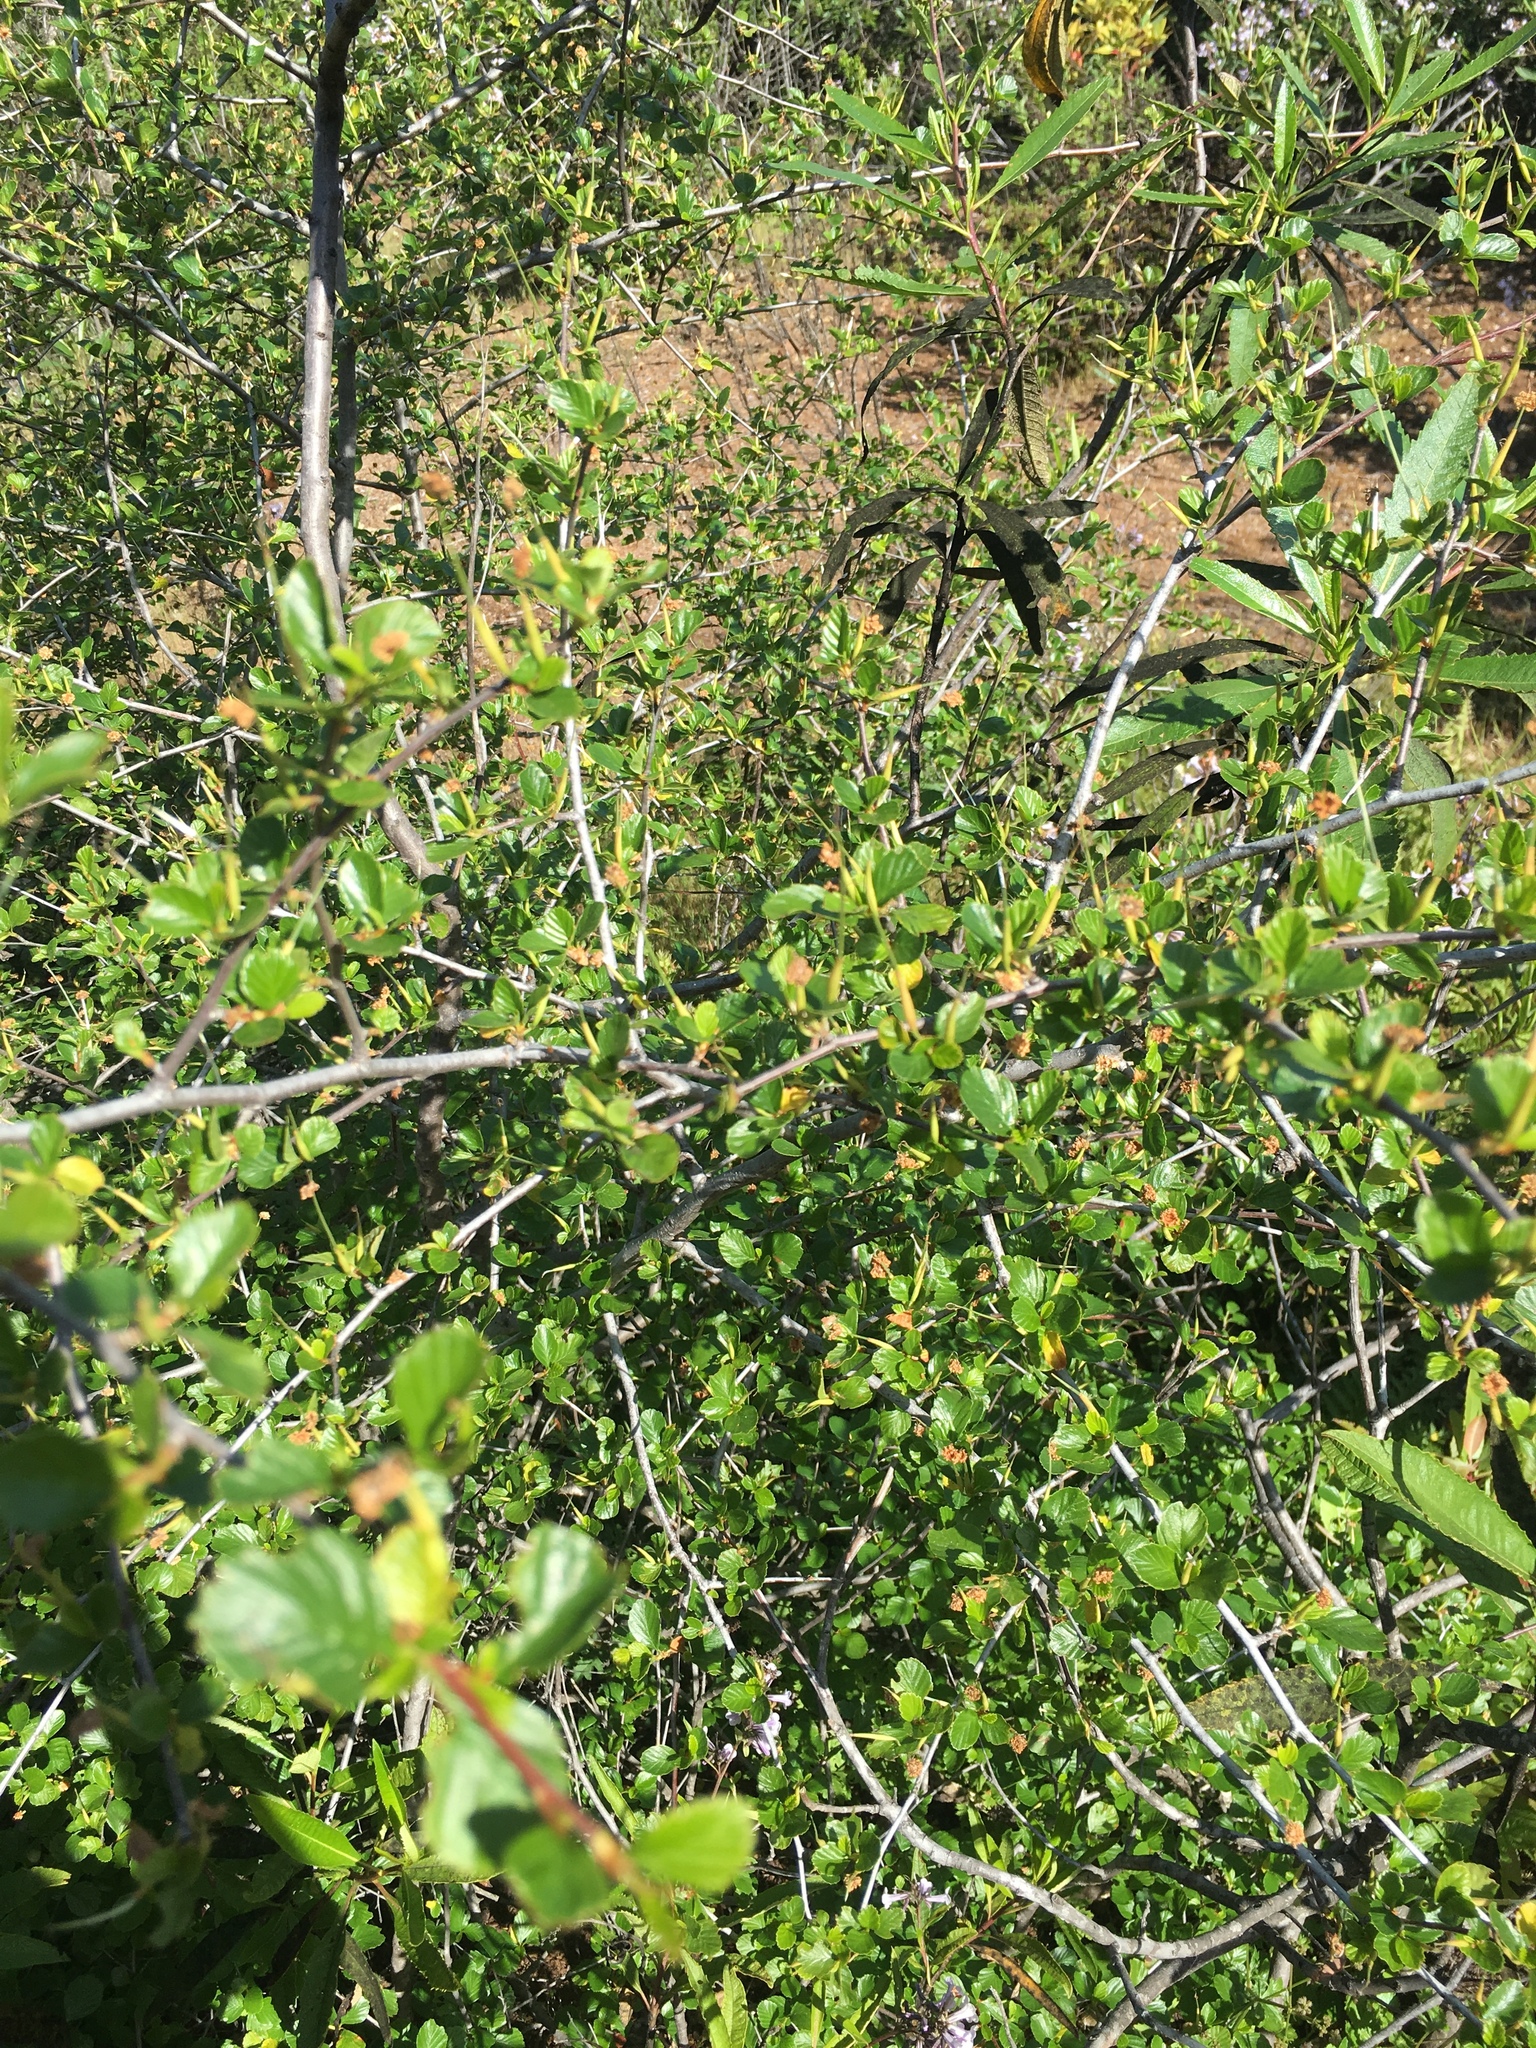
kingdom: Plantae
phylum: Tracheophyta
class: Magnoliopsida
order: Rosales
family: Rosaceae
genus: Cercocarpus
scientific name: Cercocarpus betuloides
